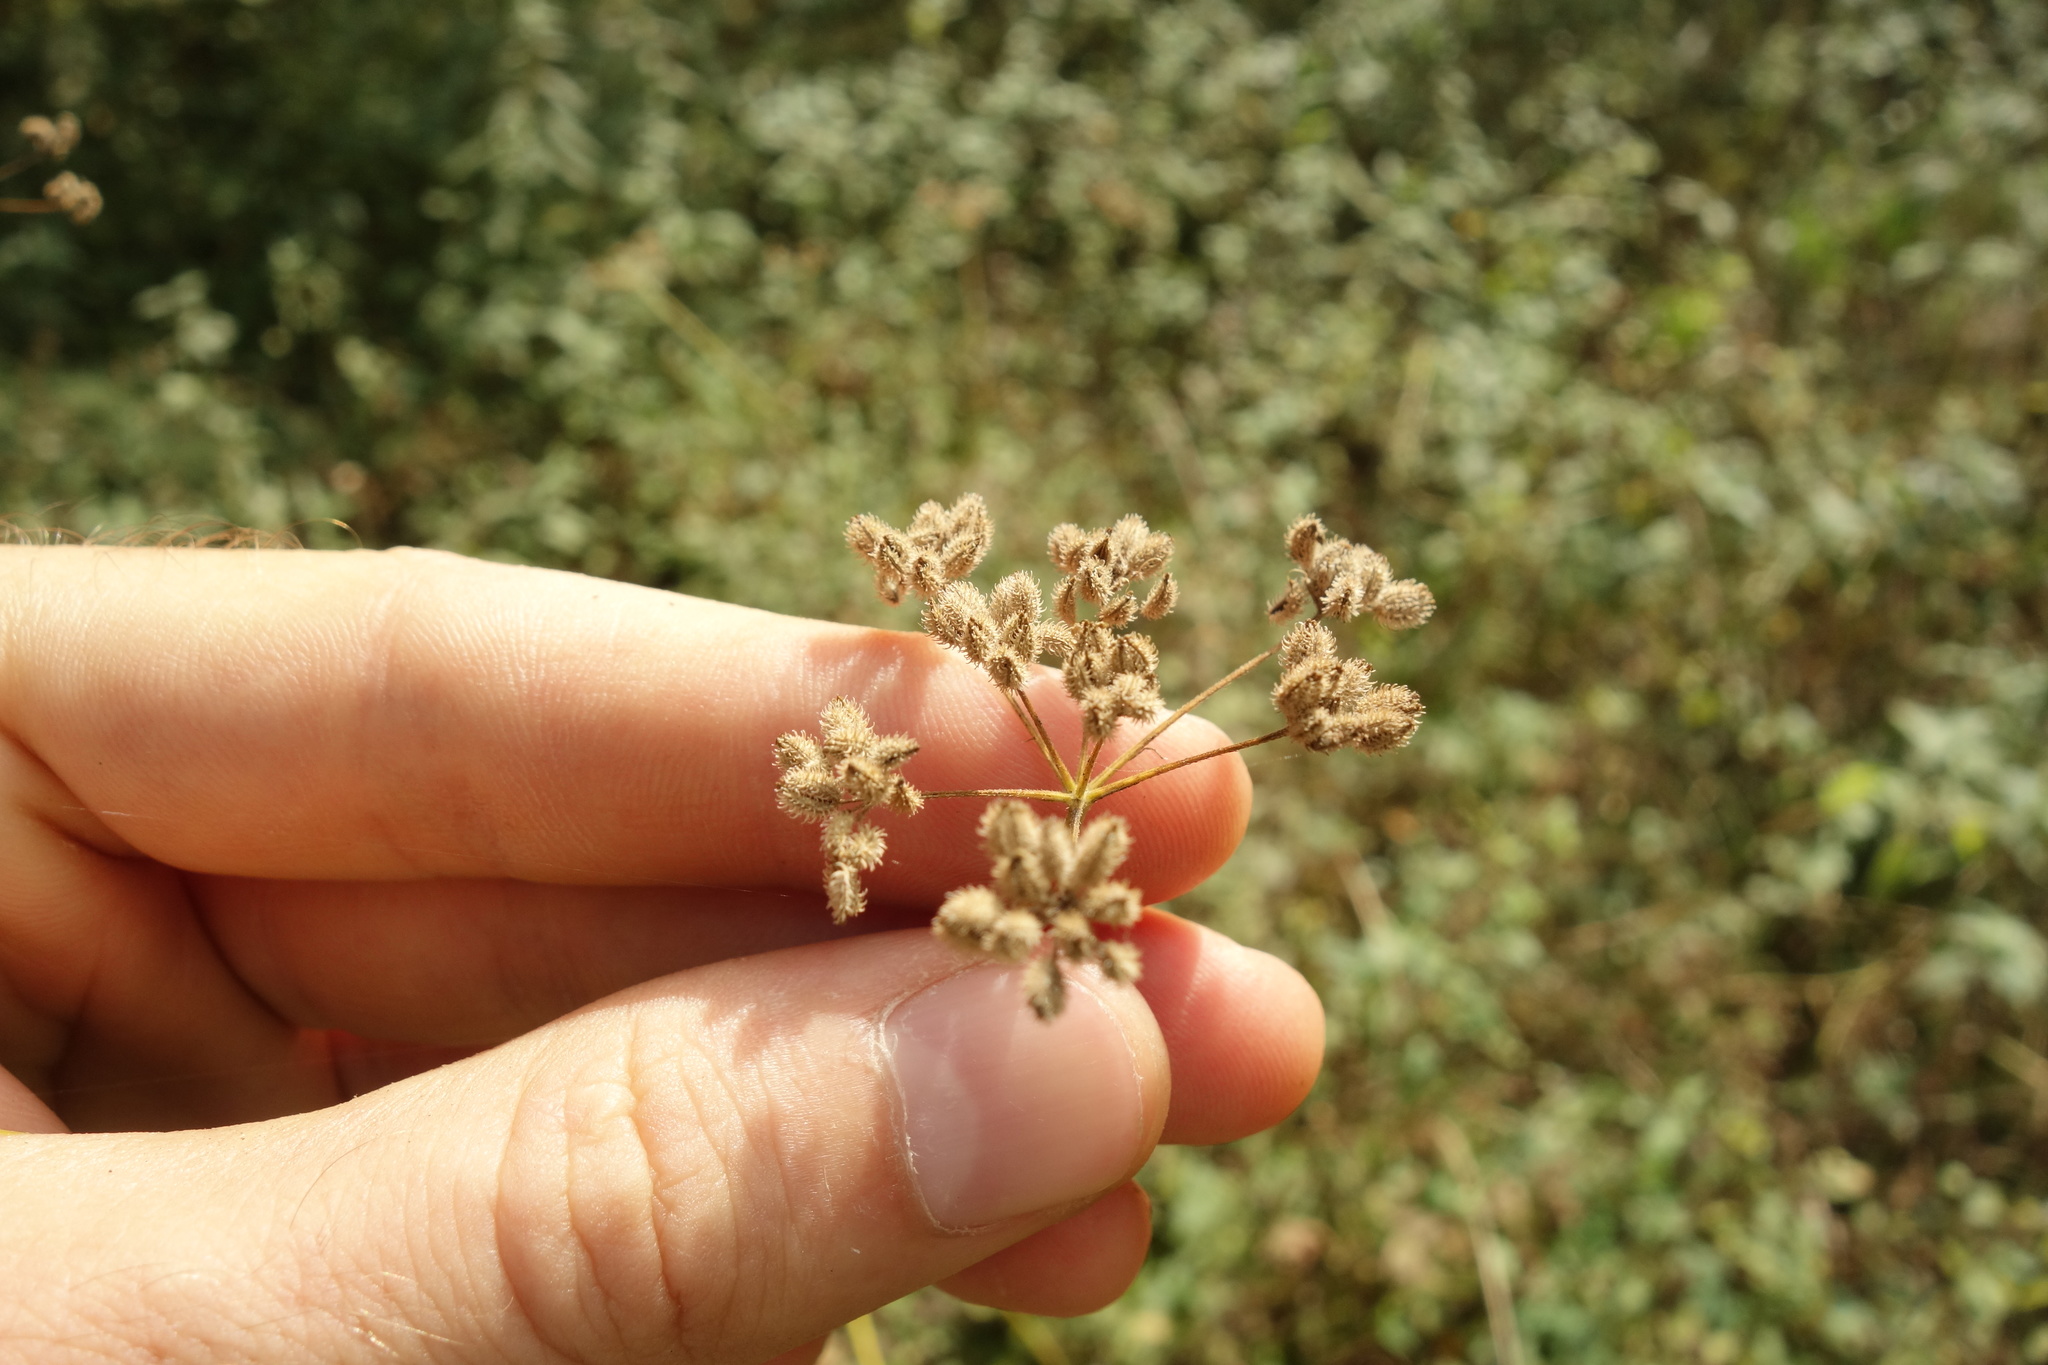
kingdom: Plantae
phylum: Tracheophyta
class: Magnoliopsida
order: Apiales
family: Apiaceae
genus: Torilis
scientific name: Torilis japonica
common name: Upright hedge-parsley
